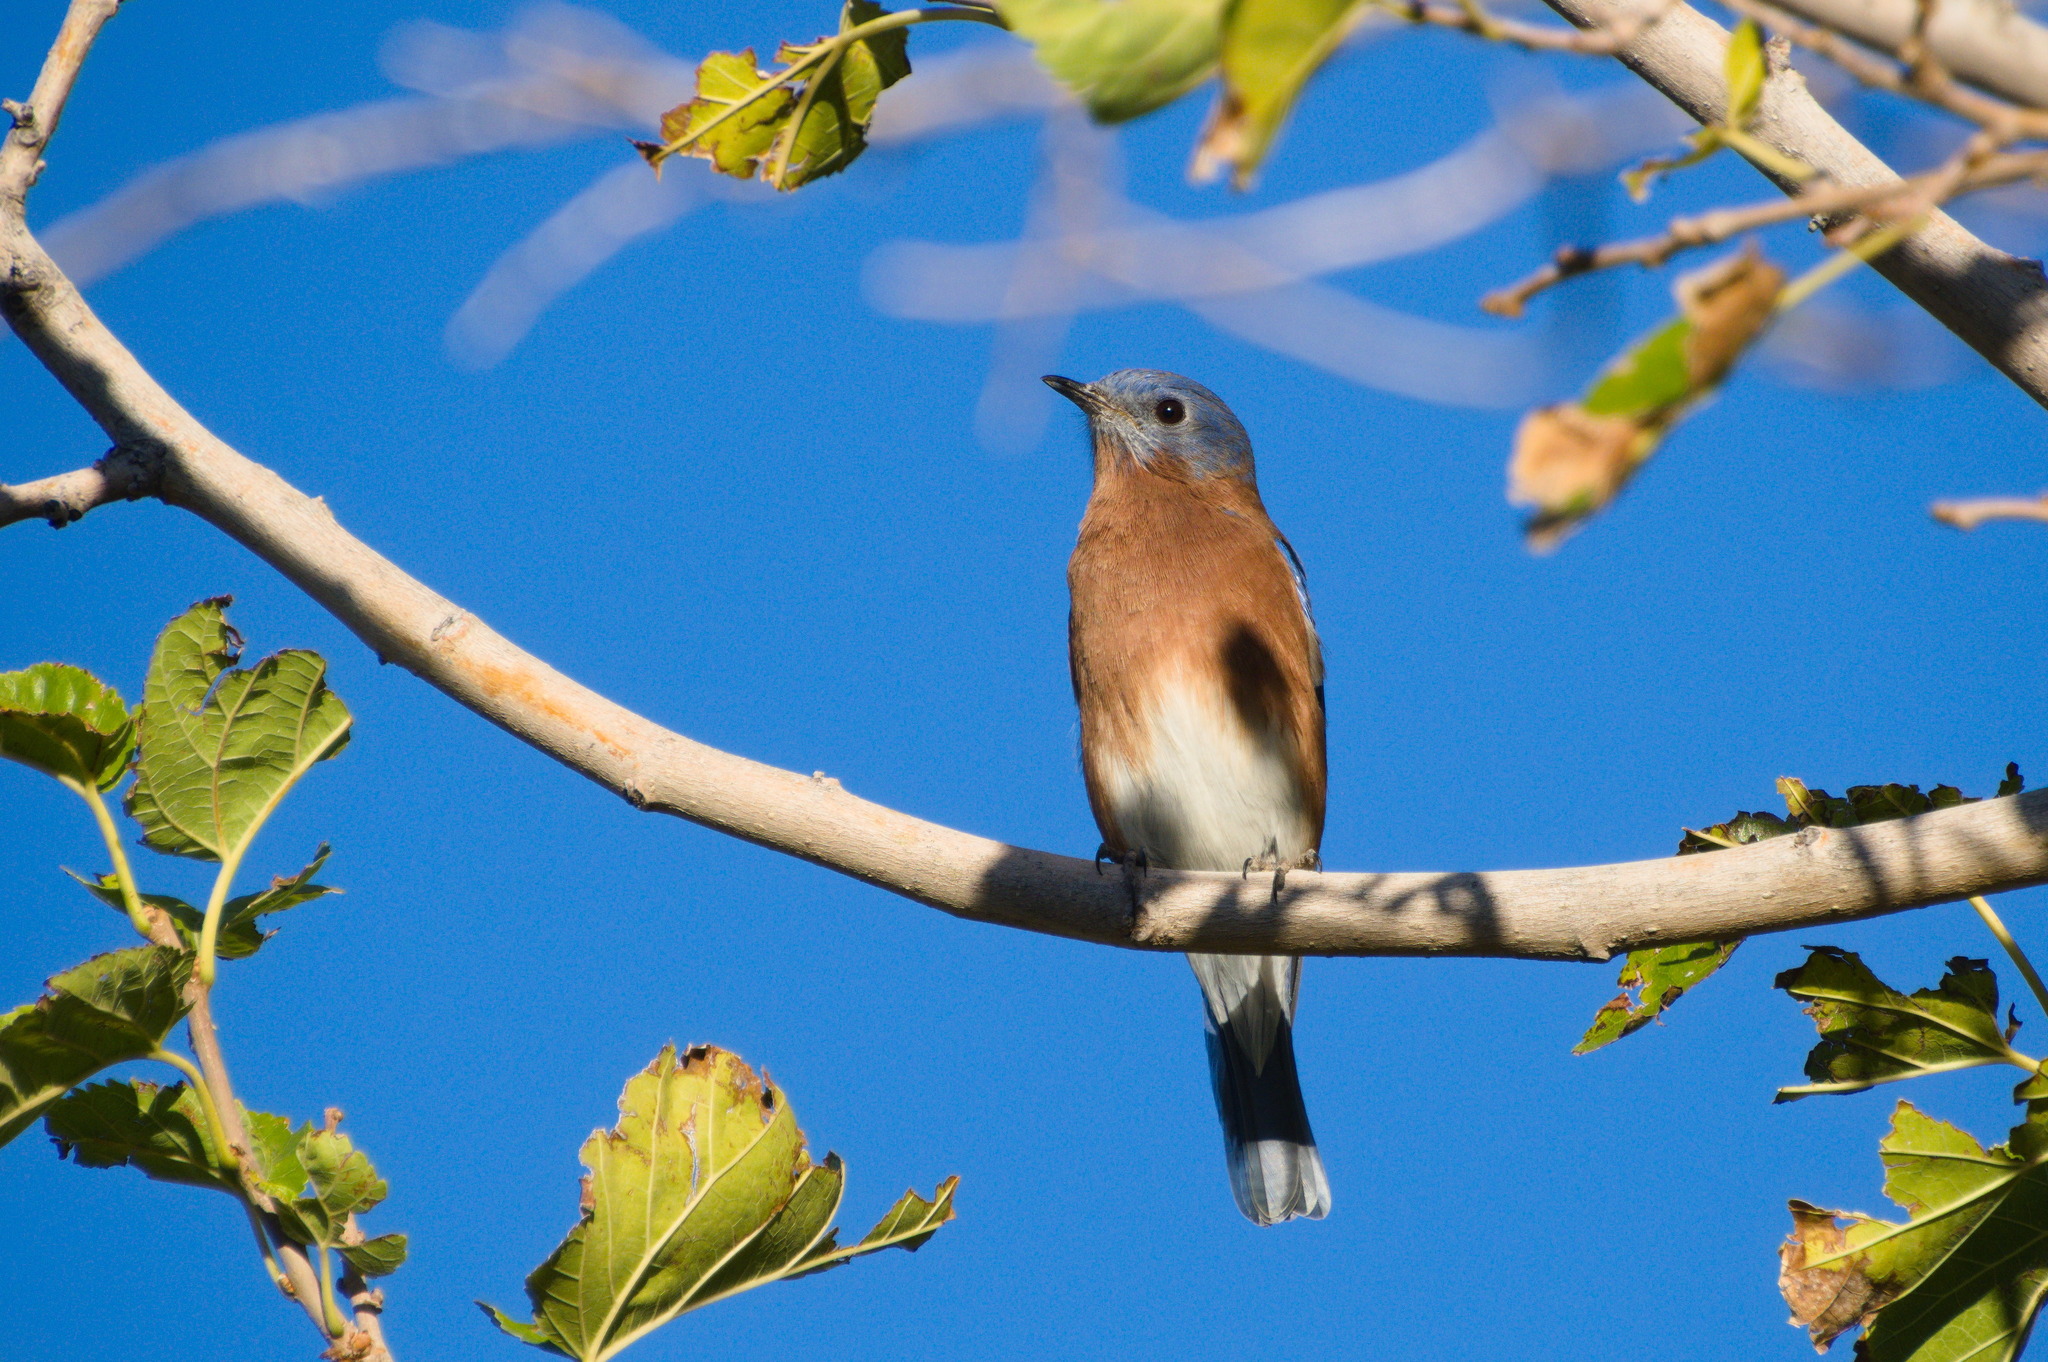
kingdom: Animalia
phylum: Chordata
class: Aves
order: Passeriformes
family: Turdidae
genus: Sialia
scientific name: Sialia sialis
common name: Eastern bluebird
